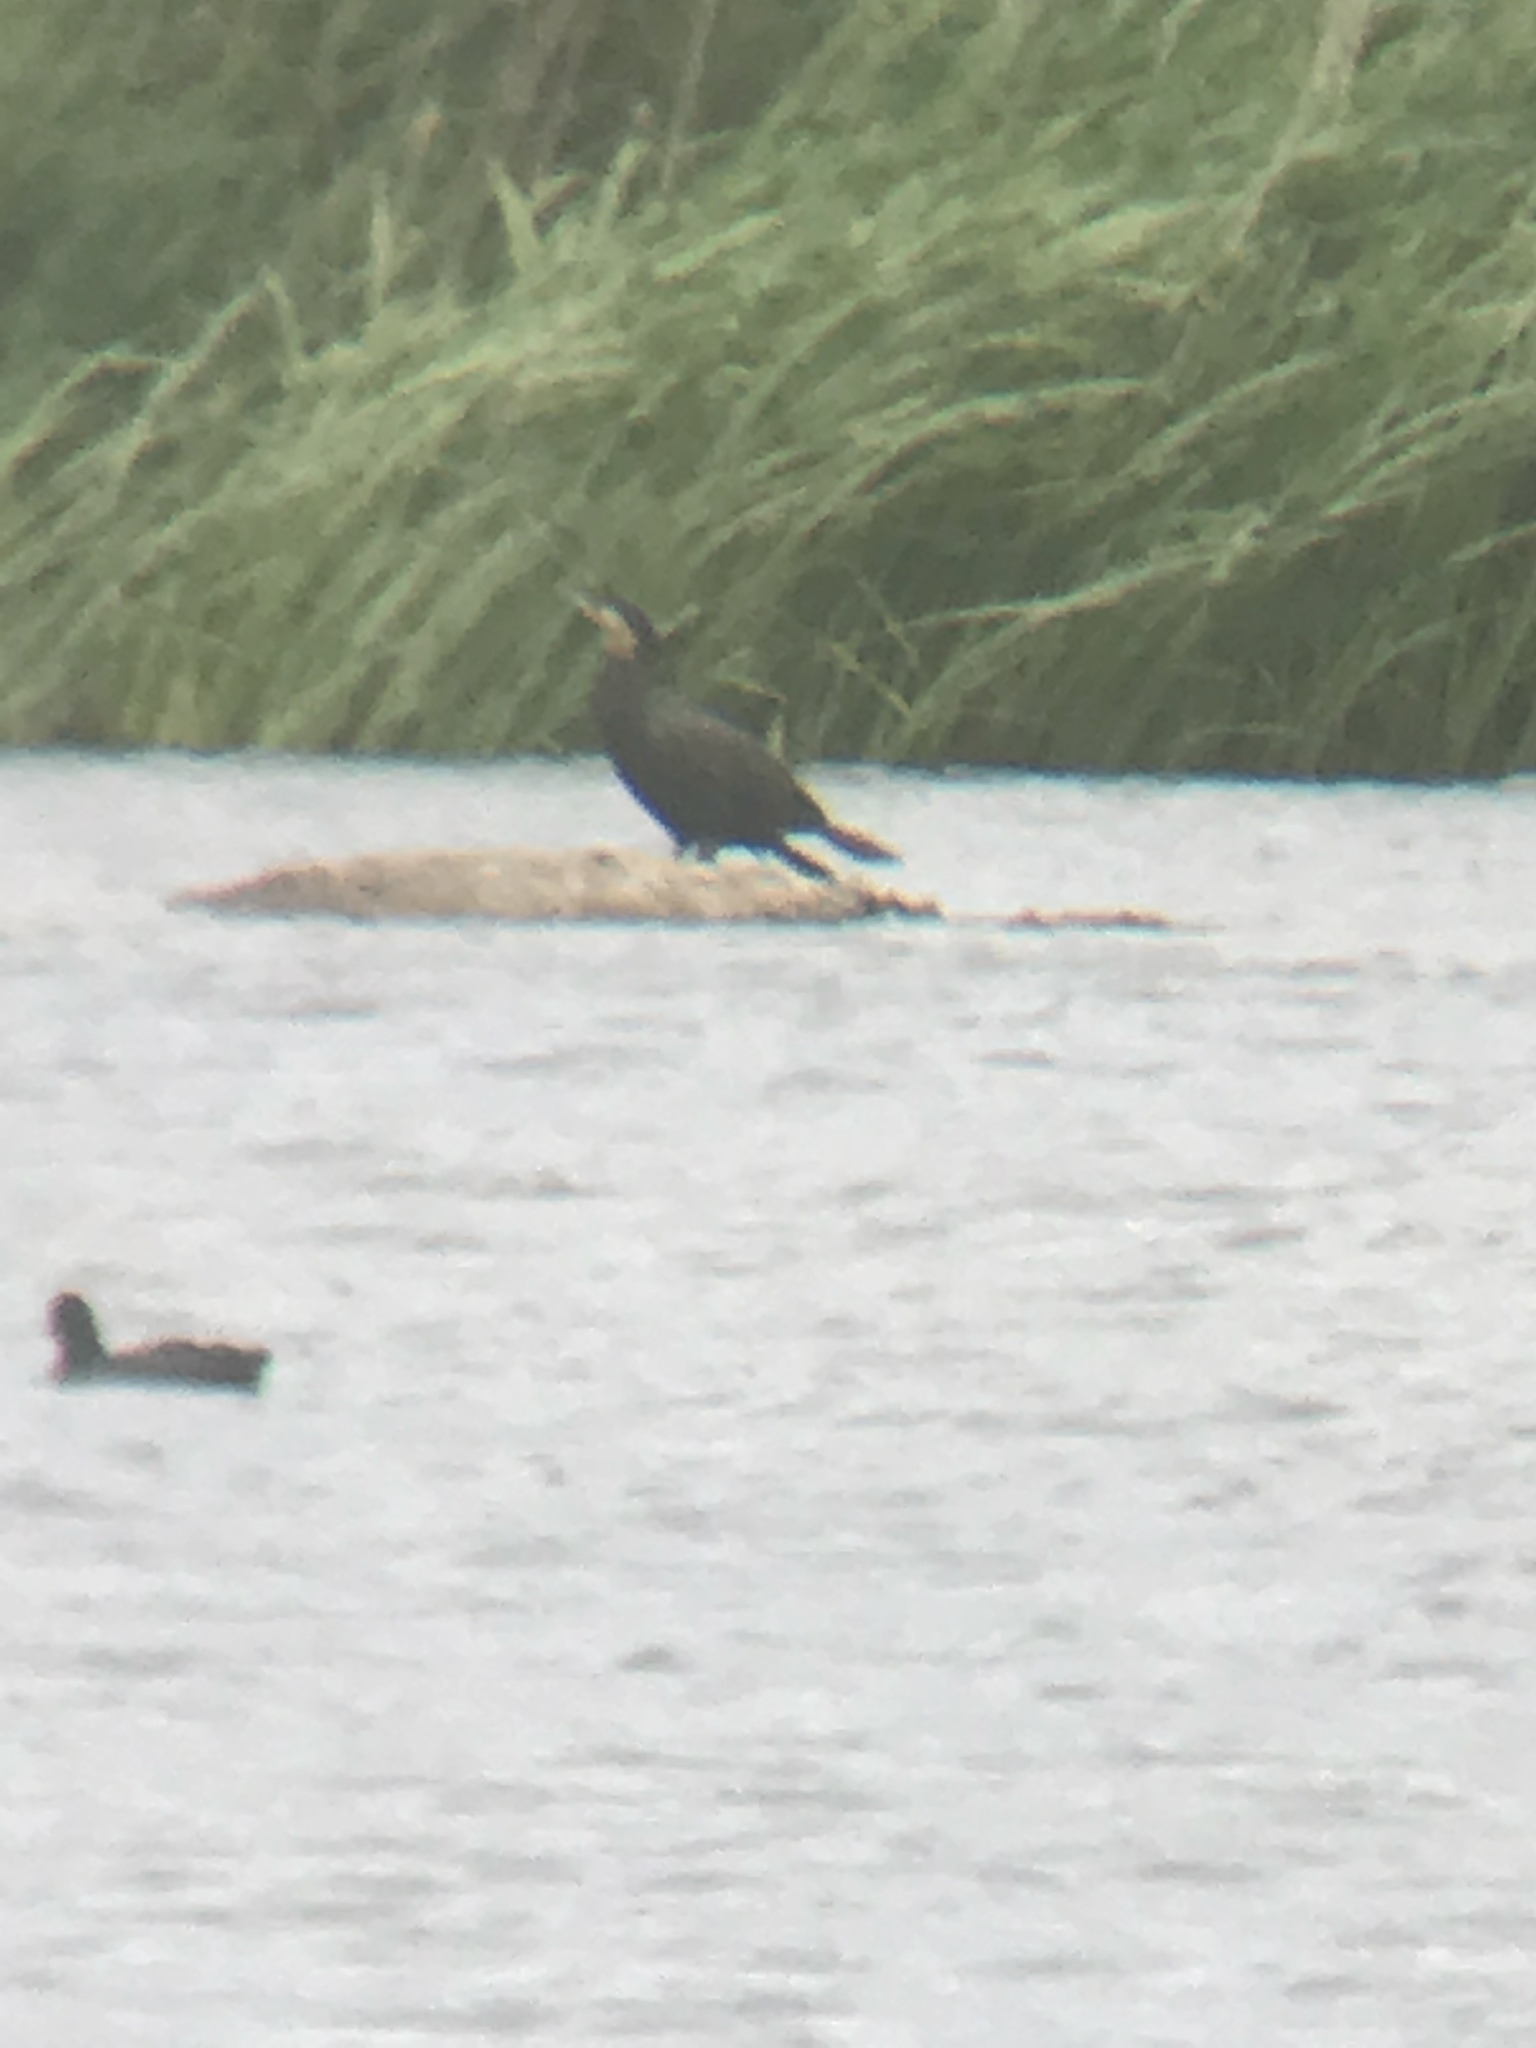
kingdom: Animalia
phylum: Chordata
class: Aves
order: Suliformes
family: Phalacrocoracidae
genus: Phalacrocorax
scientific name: Phalacrocorax carbo
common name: Great cormorant
